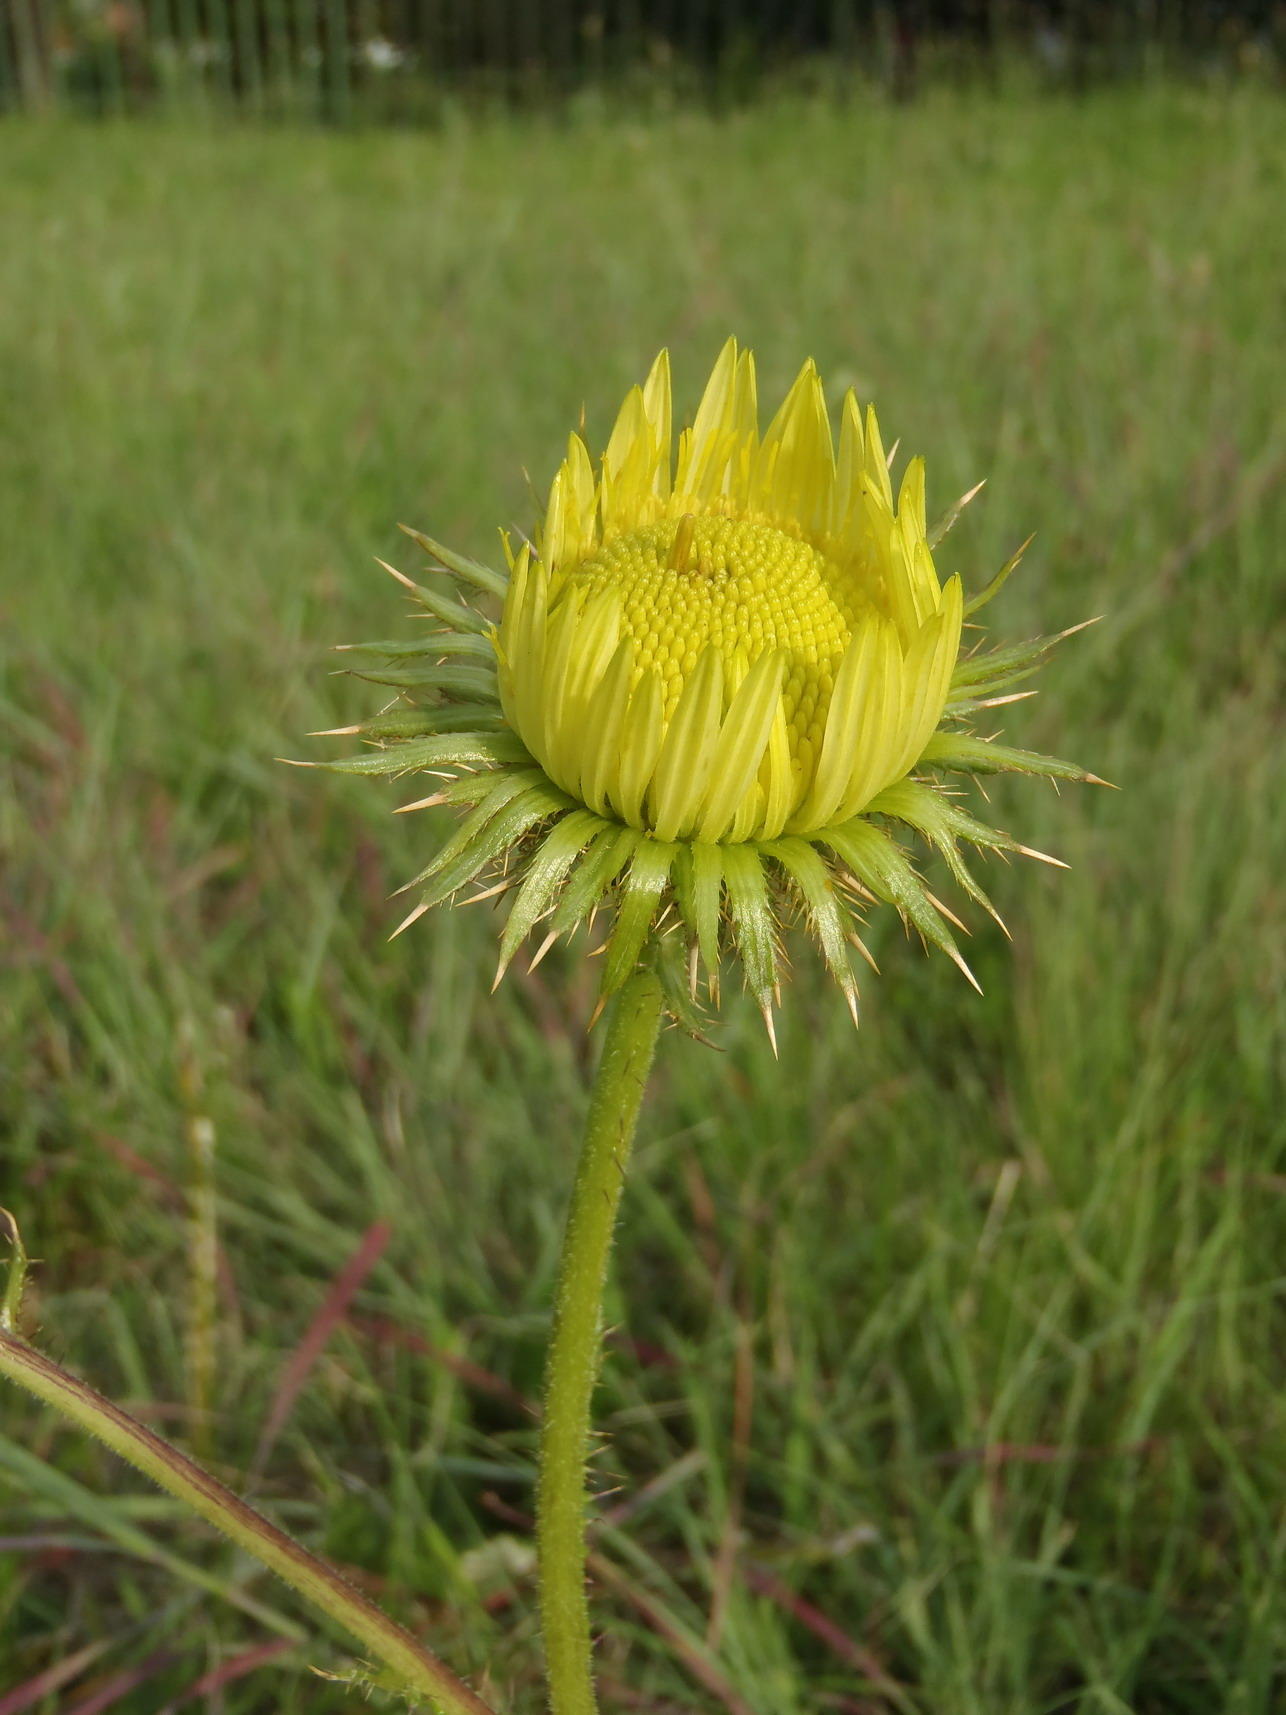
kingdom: Plantae
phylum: Tracheophyta
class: Magnoliopsida
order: Asterales
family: Asteraceae
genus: Berkheya
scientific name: Berkheya radula
